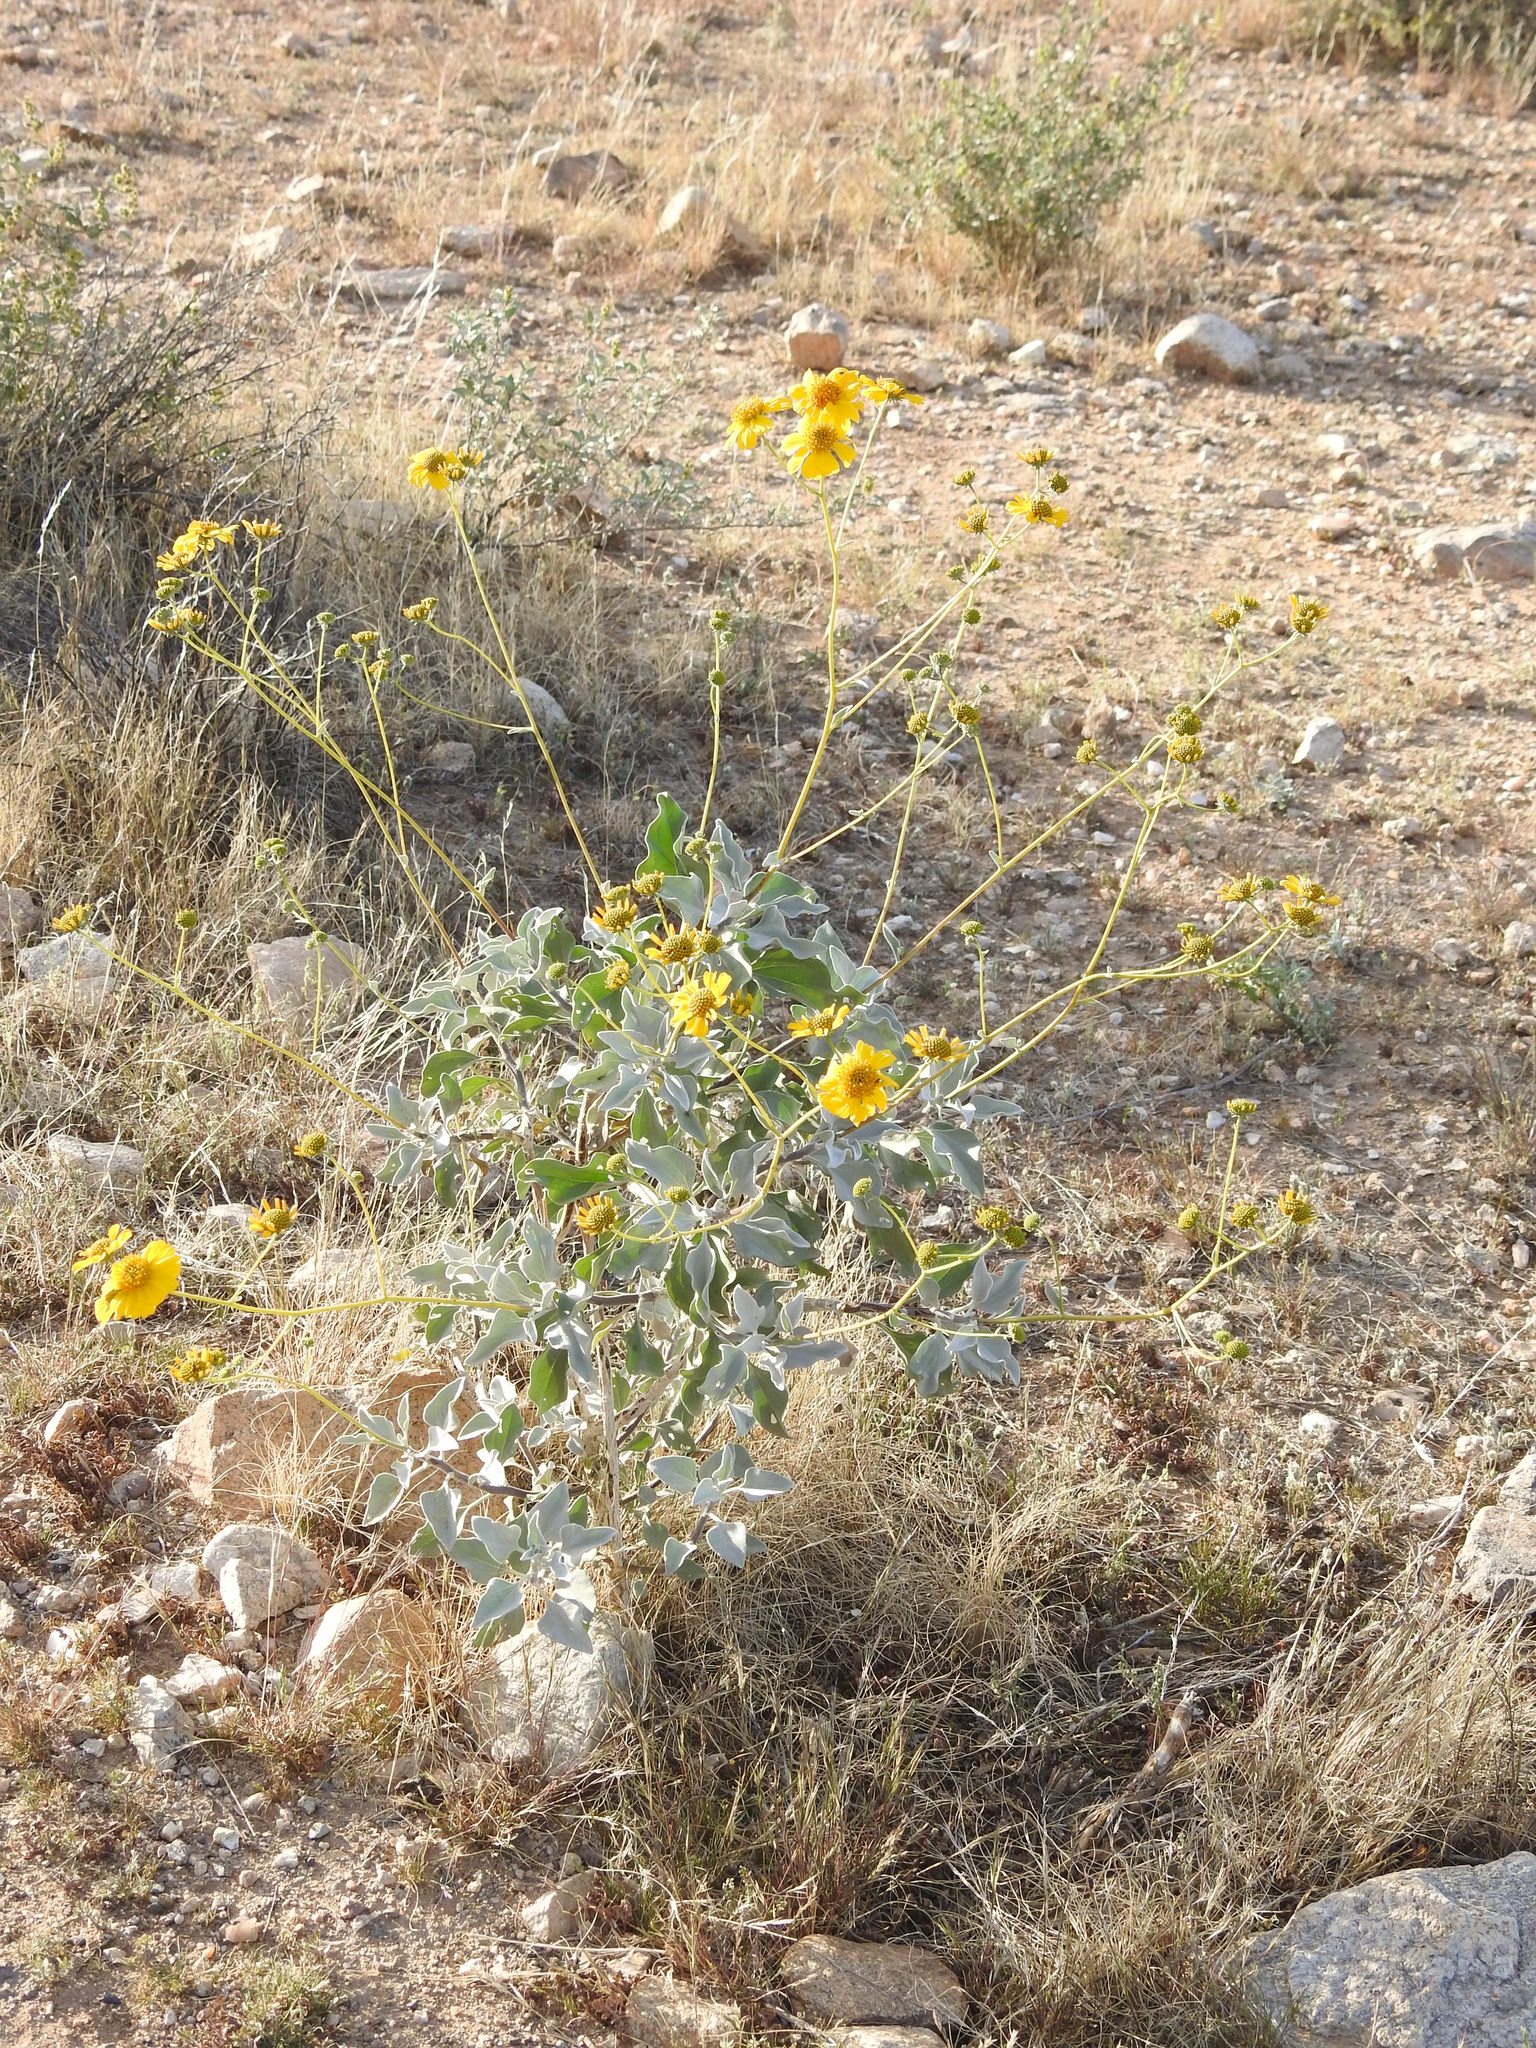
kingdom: Plantae
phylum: Tracheophyta
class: Magnoliopsida
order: Asterales
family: Asteraceae
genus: Encelia
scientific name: Encelia farinosa
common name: Brittlebush
